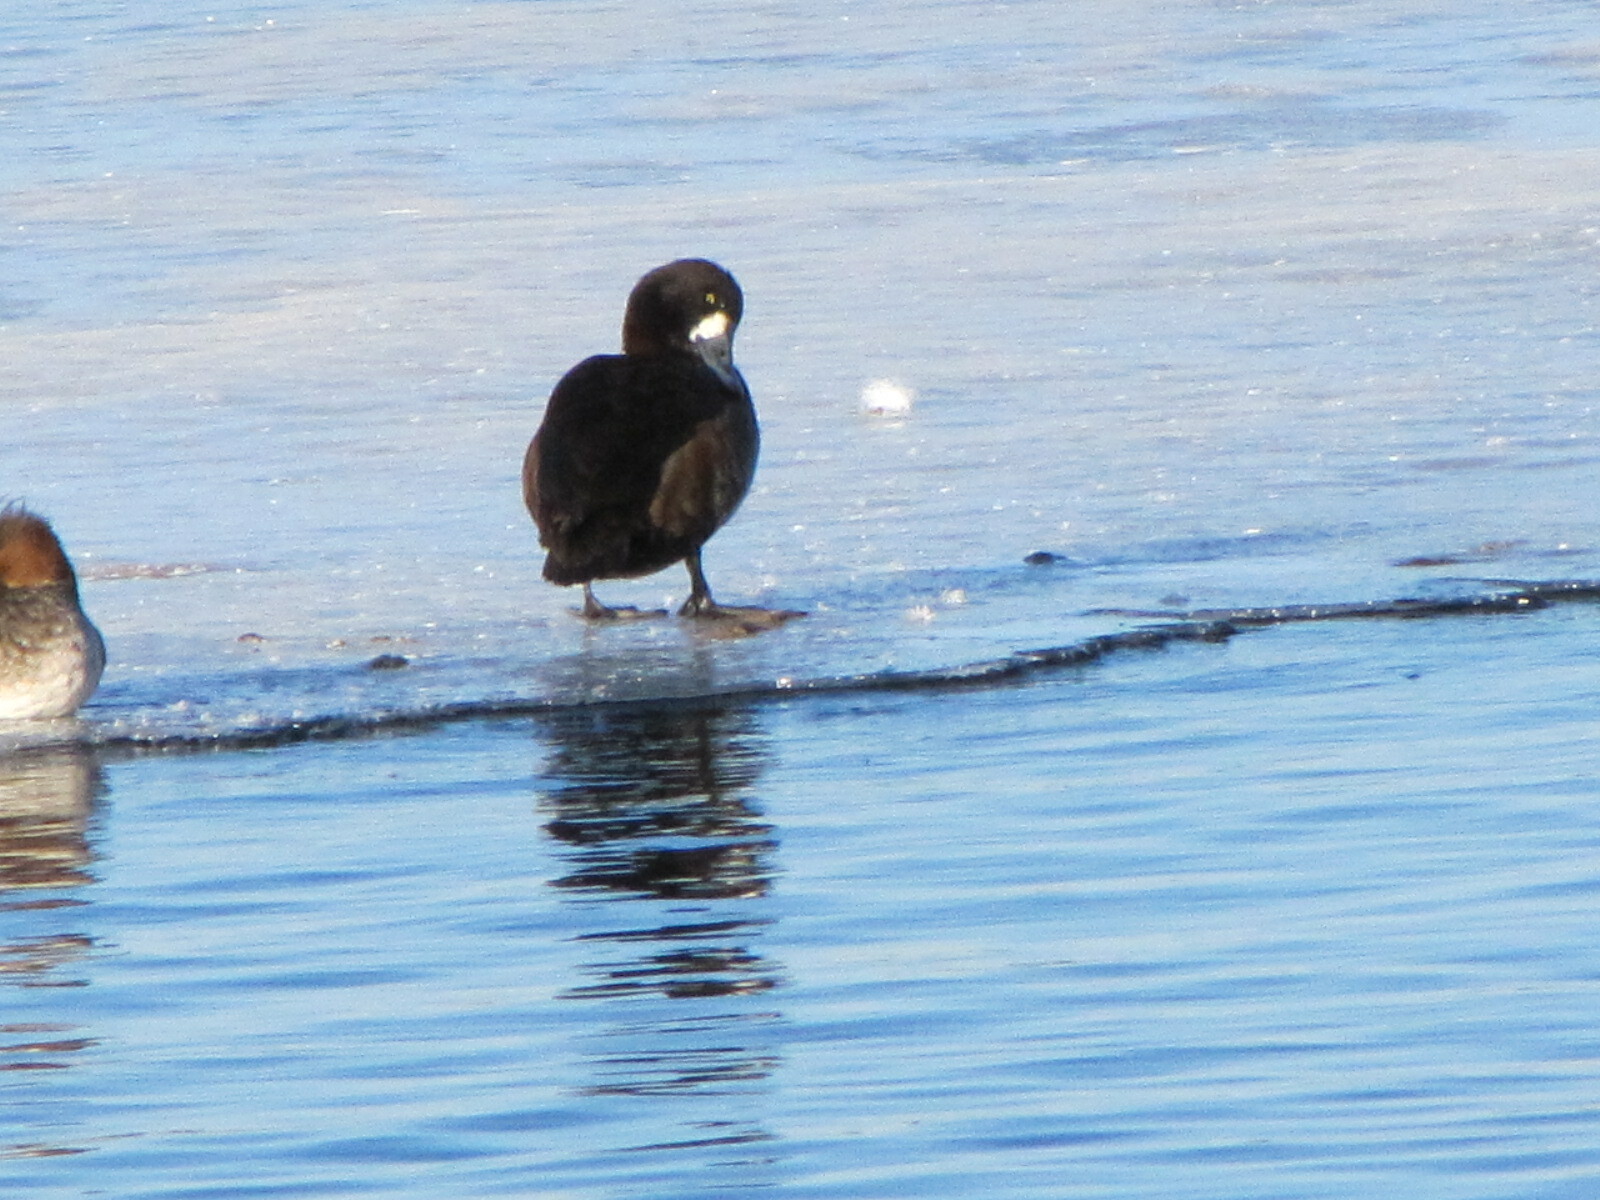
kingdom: Animalia
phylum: Chordata
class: Aves
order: Anseriformes
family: Anatidae
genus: Aythya
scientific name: Aythya marila
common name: Greater scaup
